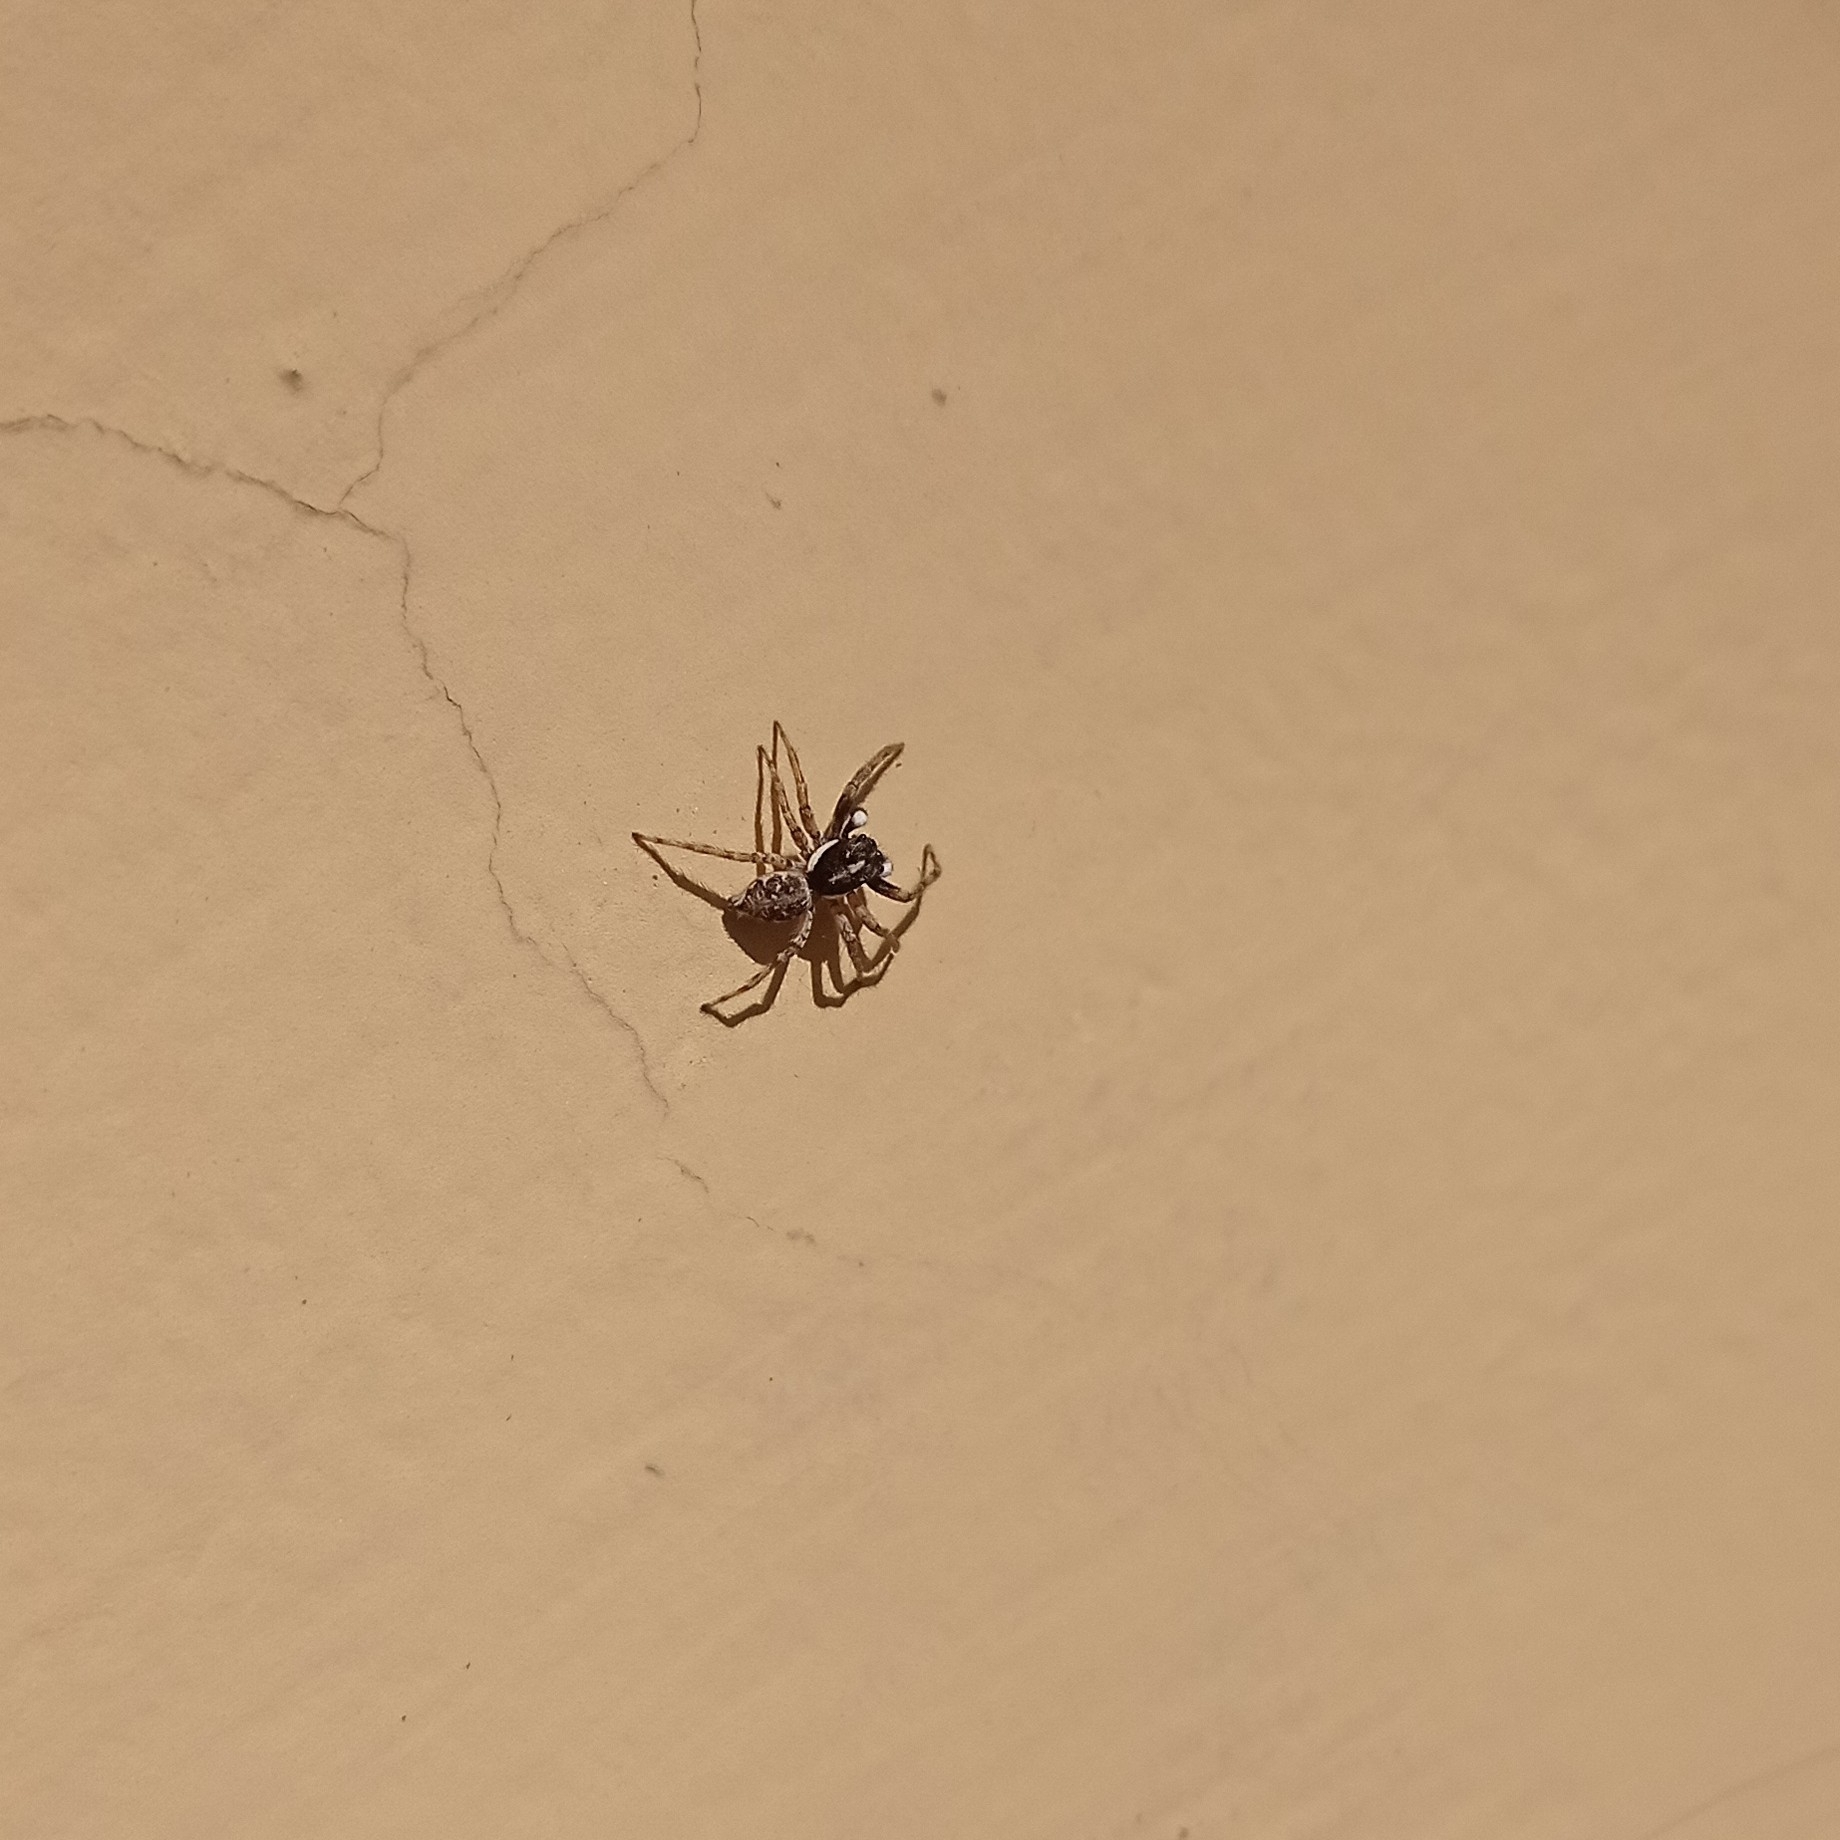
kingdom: Animalia
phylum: Arthropoda
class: Arachnida
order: Araneae
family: Salticidae
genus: Menemerus
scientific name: Menemerus semilimbatus
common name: Jumping spider
